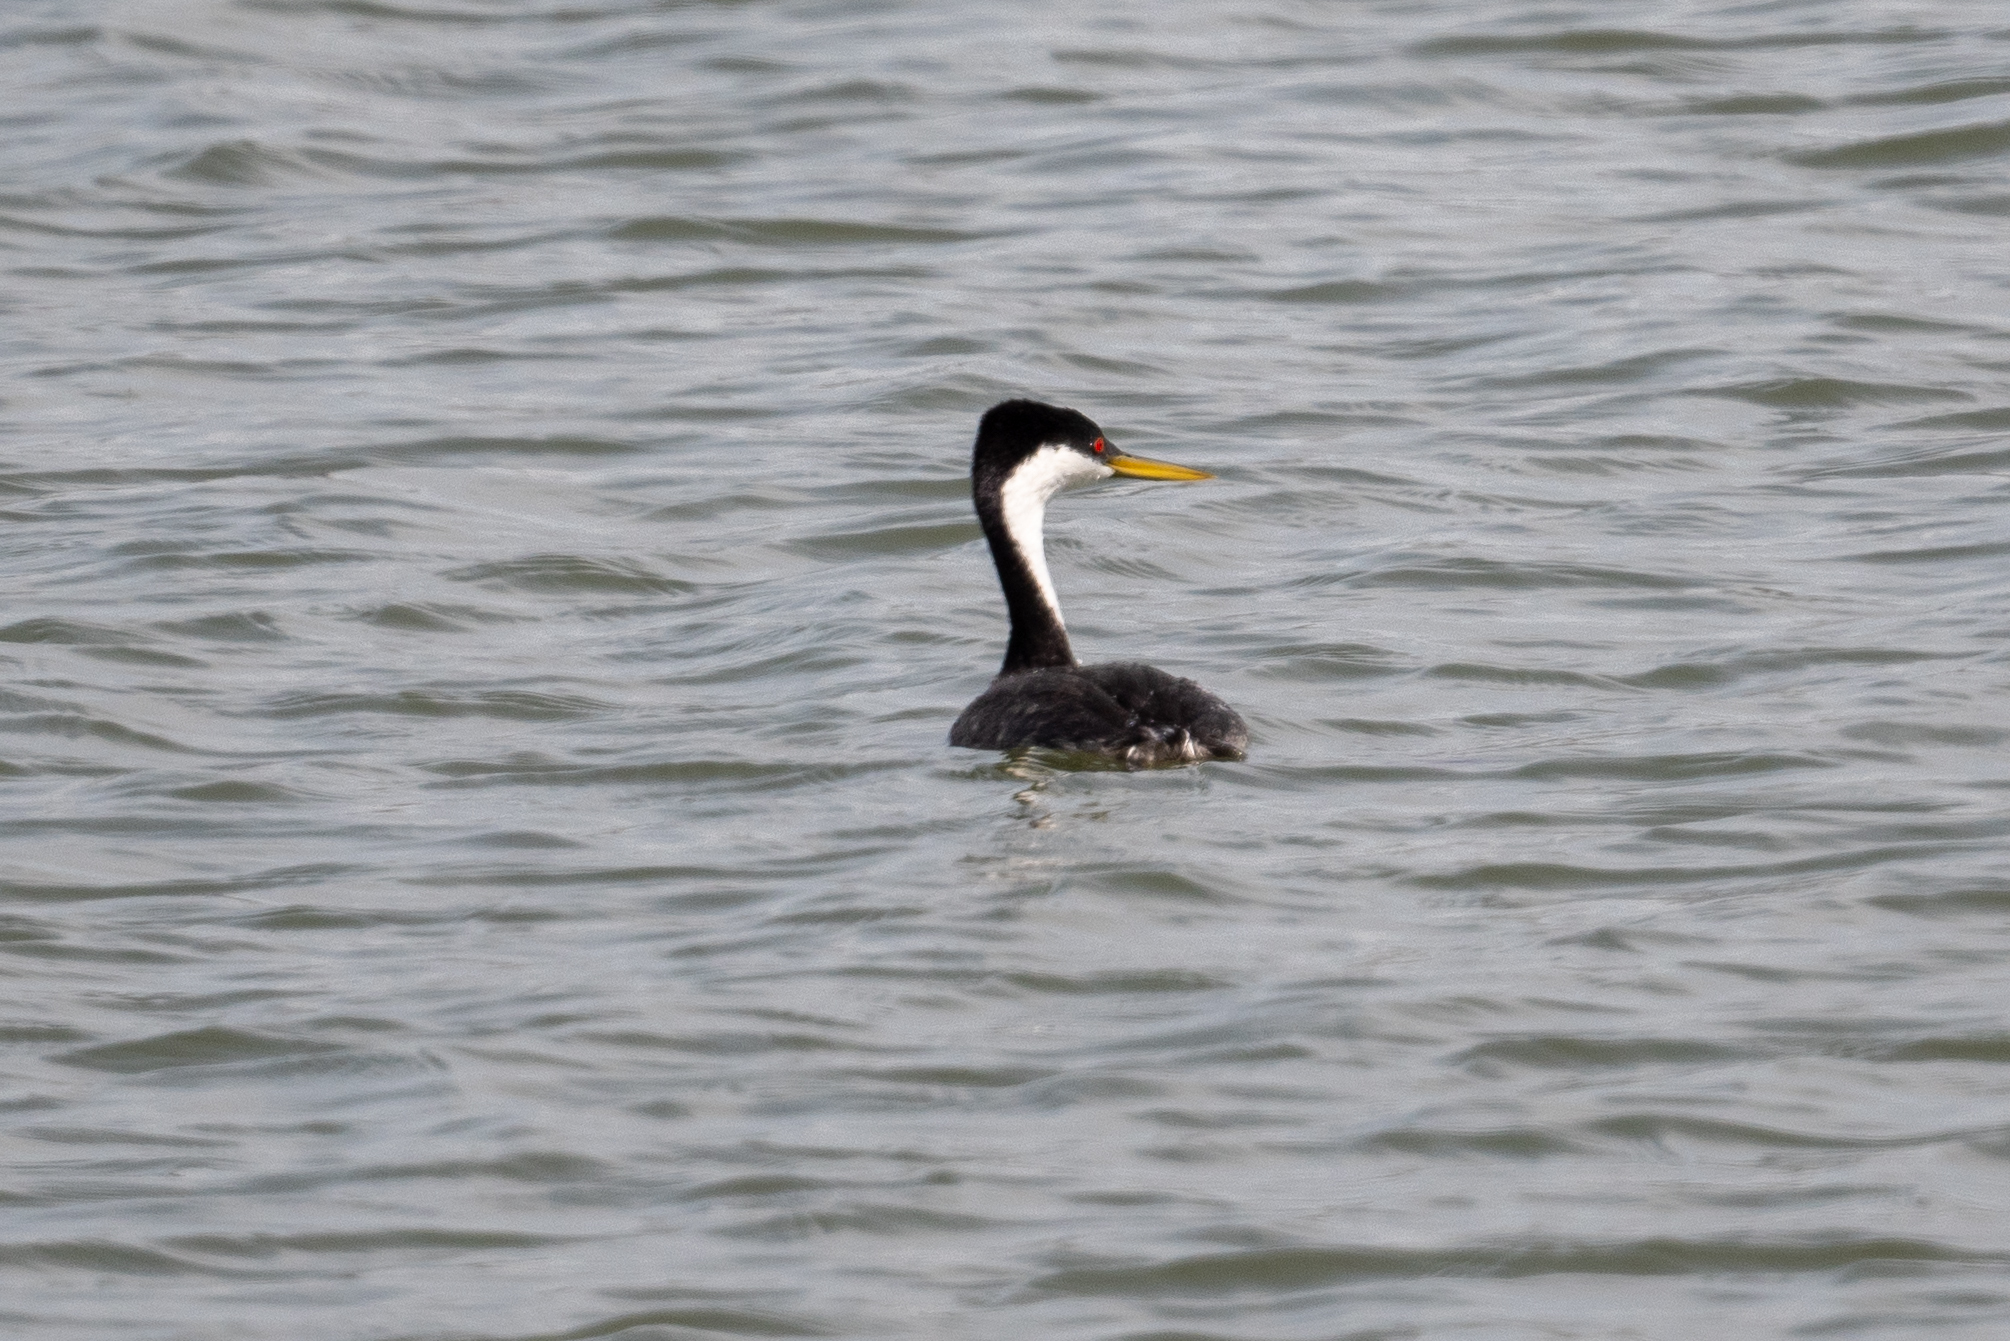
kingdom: Animalia
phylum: Chordata
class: Aves
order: Podicipediformes
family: Podicipedidae
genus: Aechmophorus
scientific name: Aechmophorus occidentalis
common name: Western grebe
